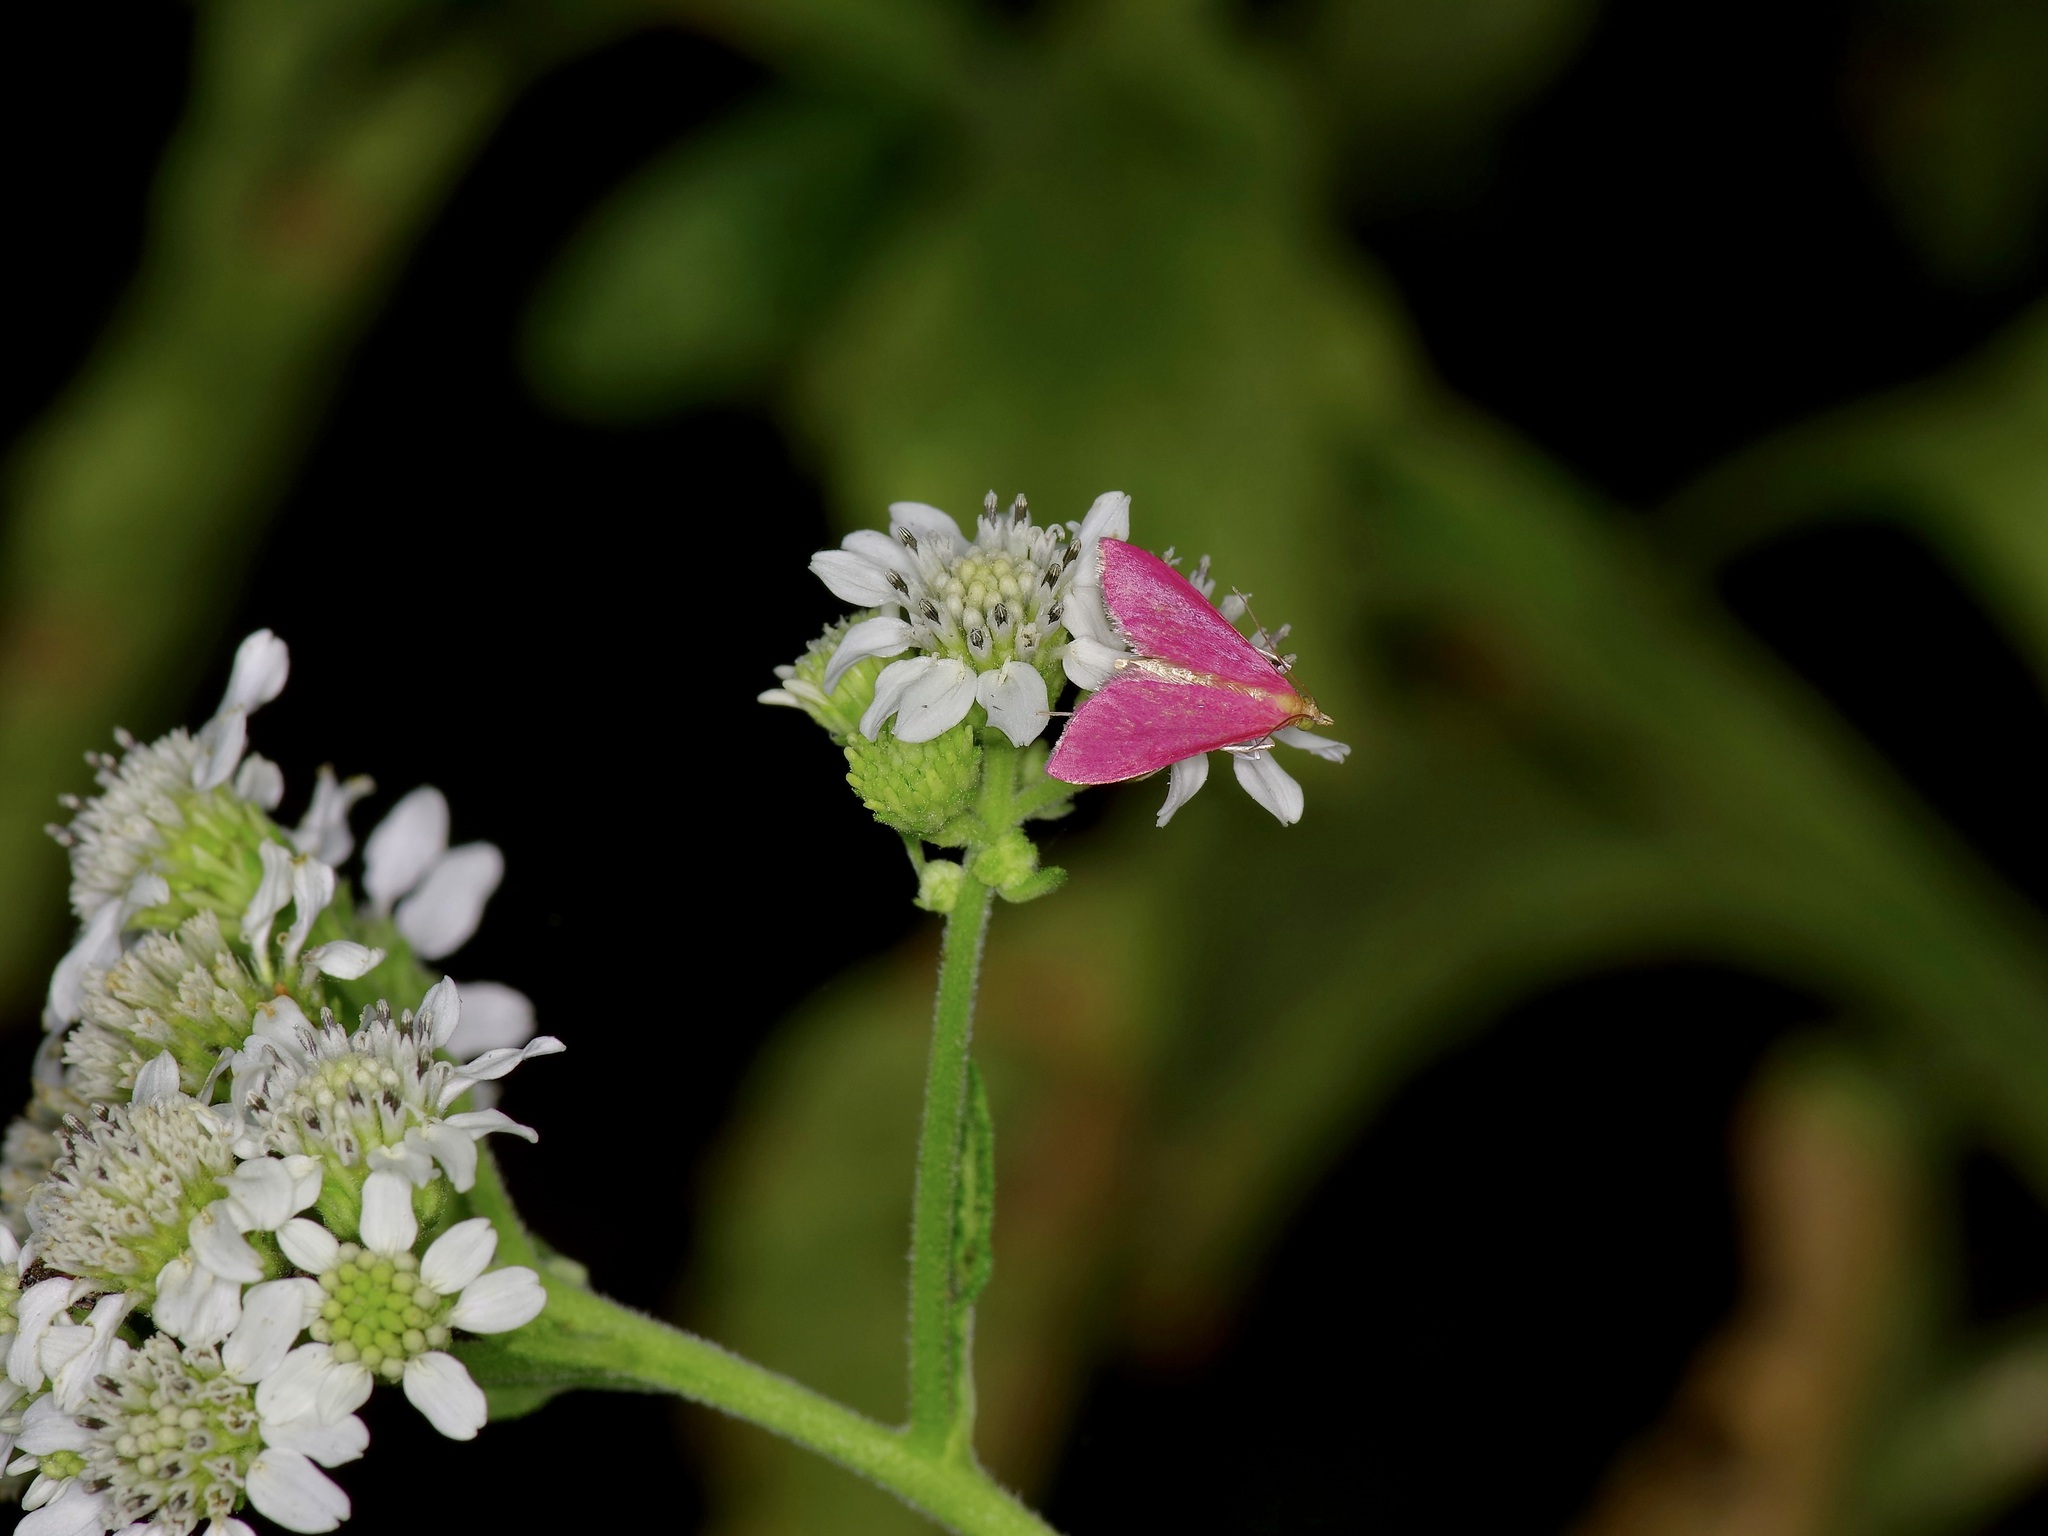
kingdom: Animalia
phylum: Arthropoda
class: Insecta
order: Lepidoptera
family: Crambidae
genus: Pyrausta
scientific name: Pyrausta inornatalis
